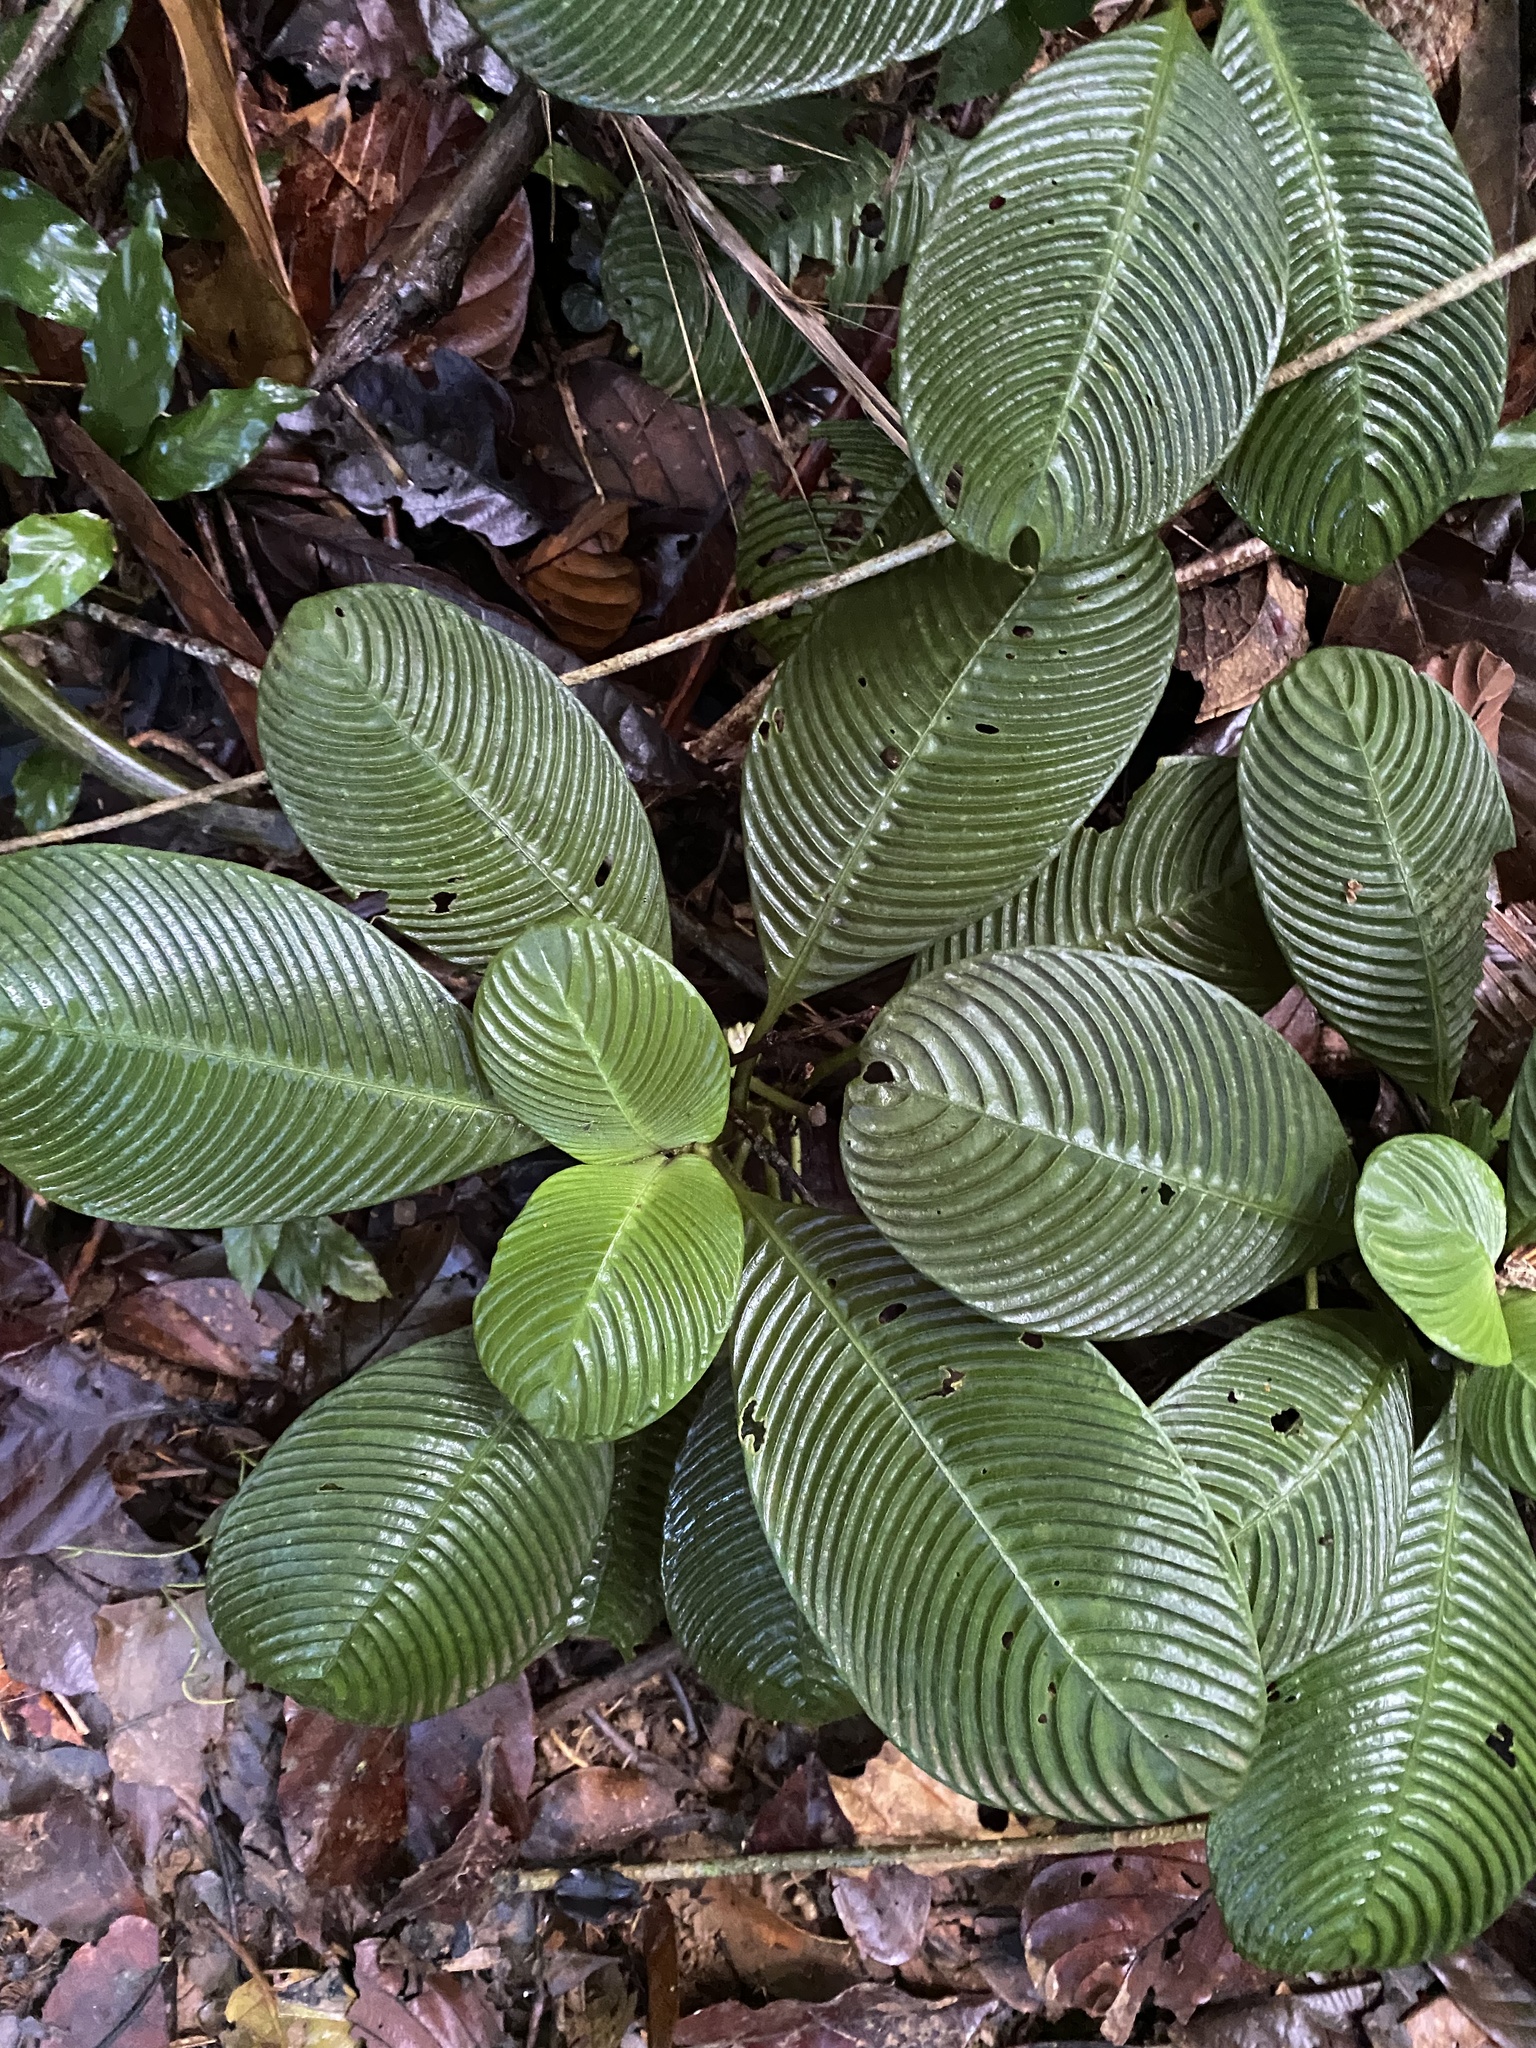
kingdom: Plantae
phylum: Tracheophyta
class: Magnoliopsida
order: Gentianales
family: Rubiaceae
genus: Notopleura
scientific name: Notopleura polyphlebia
